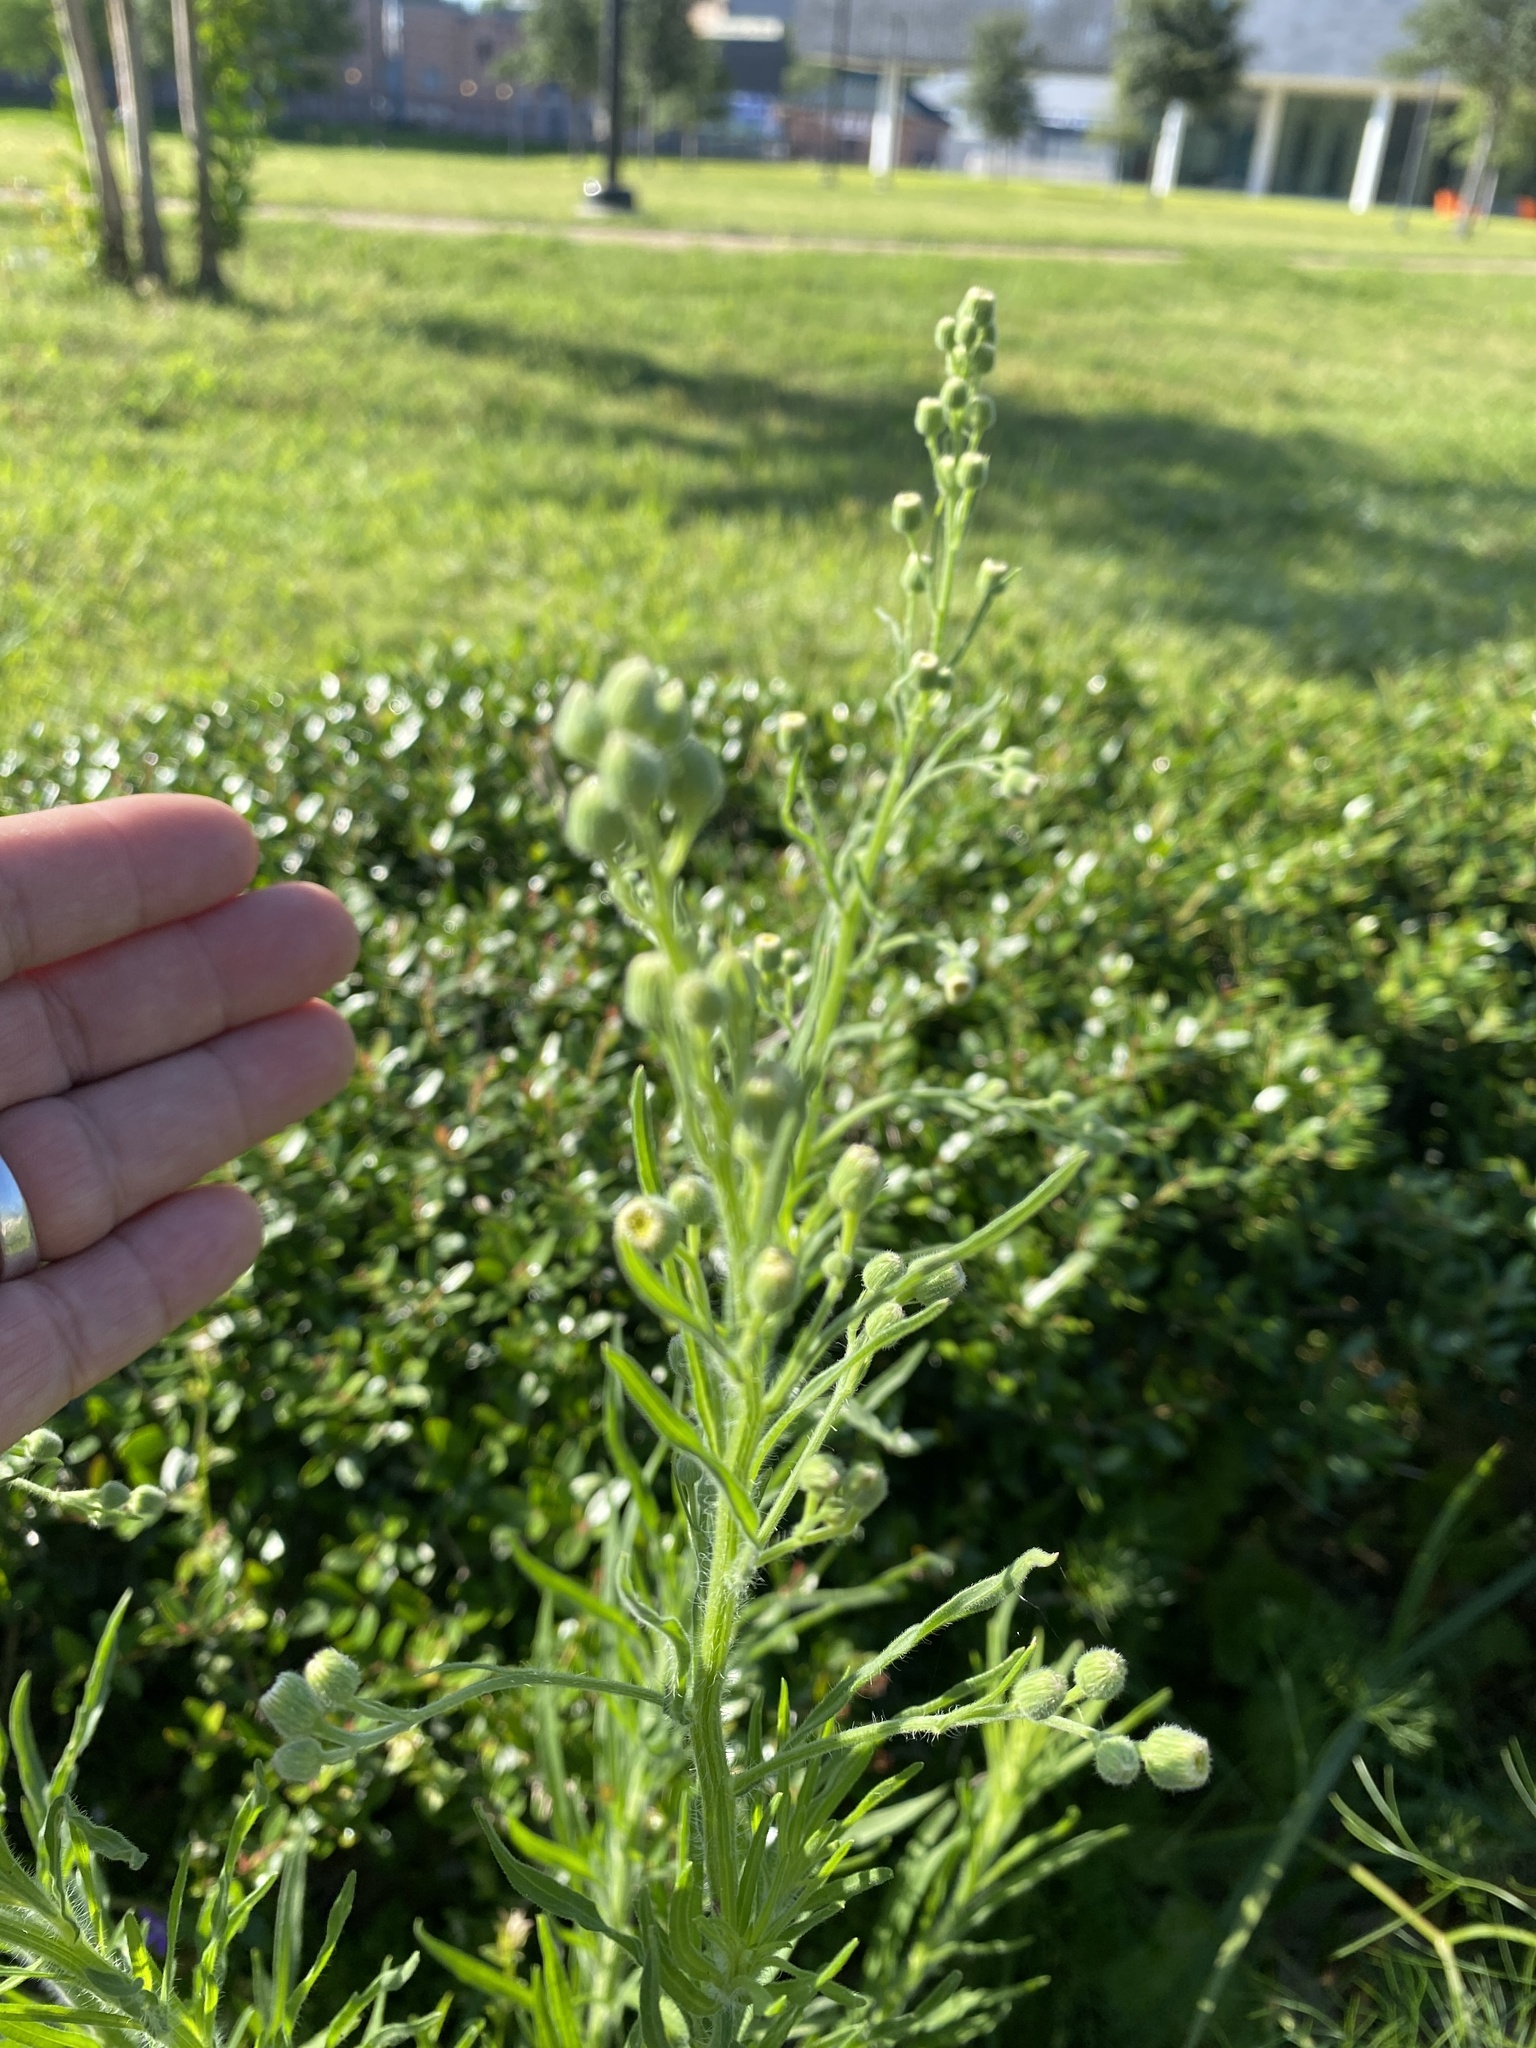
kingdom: Plantae
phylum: Tracheophyta
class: Magnoliopsida
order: Asterales
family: Asteraceae
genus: Erigeron
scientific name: Erigeron bonariensis
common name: Argentine fleabane
